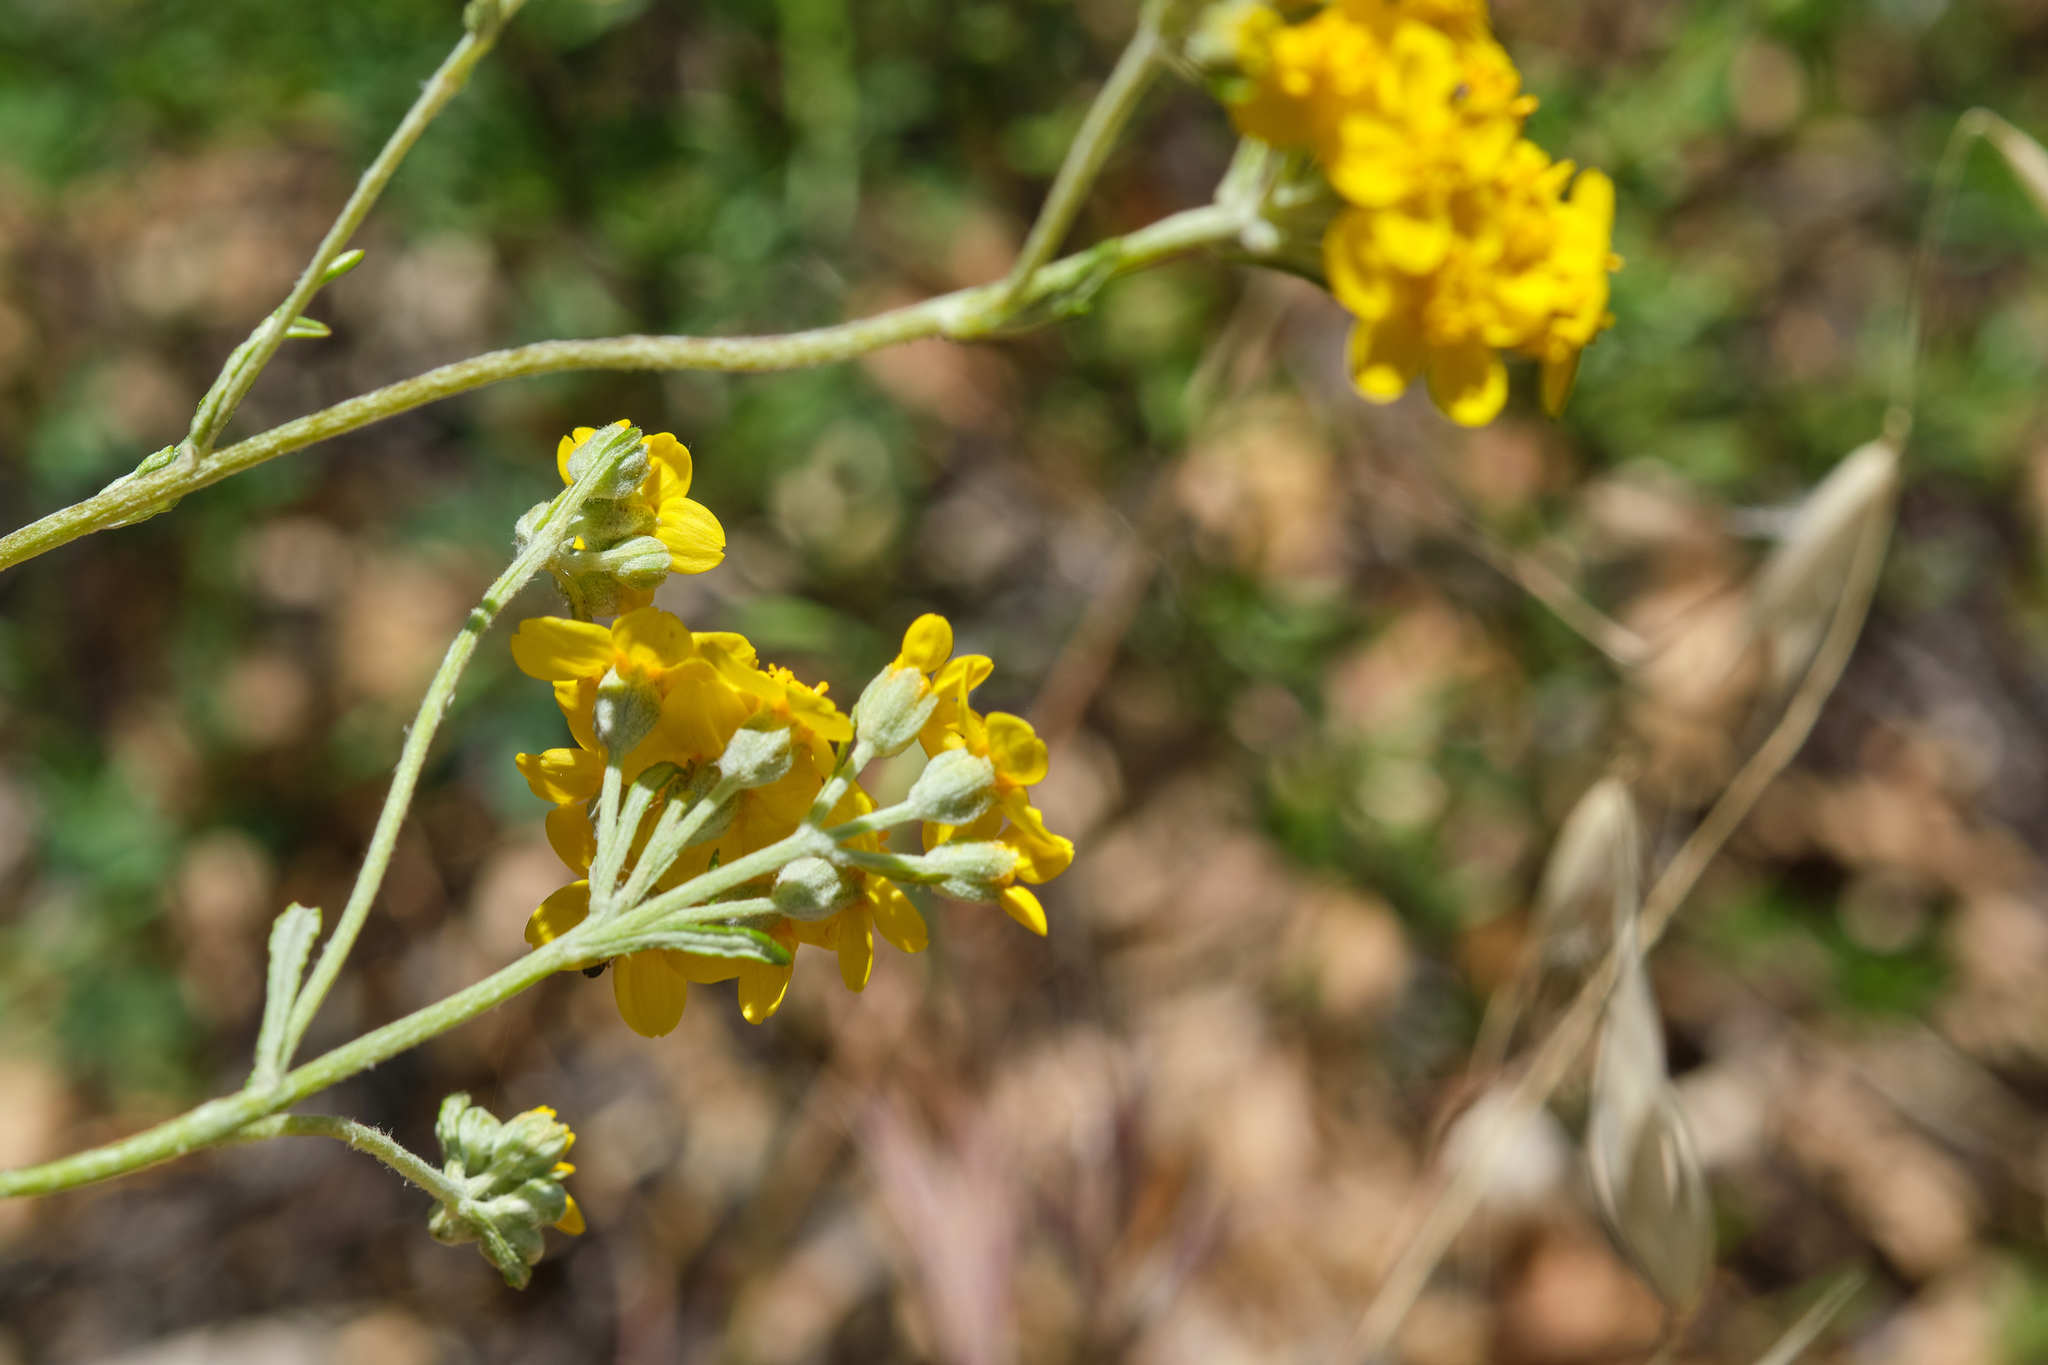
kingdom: Plantae
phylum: Tracheophyta
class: Magnoliopsida
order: Asterales
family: Asteraceae
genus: Eriophyllum
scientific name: Eriophyllum confertiflorum
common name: Golden-yarrow
